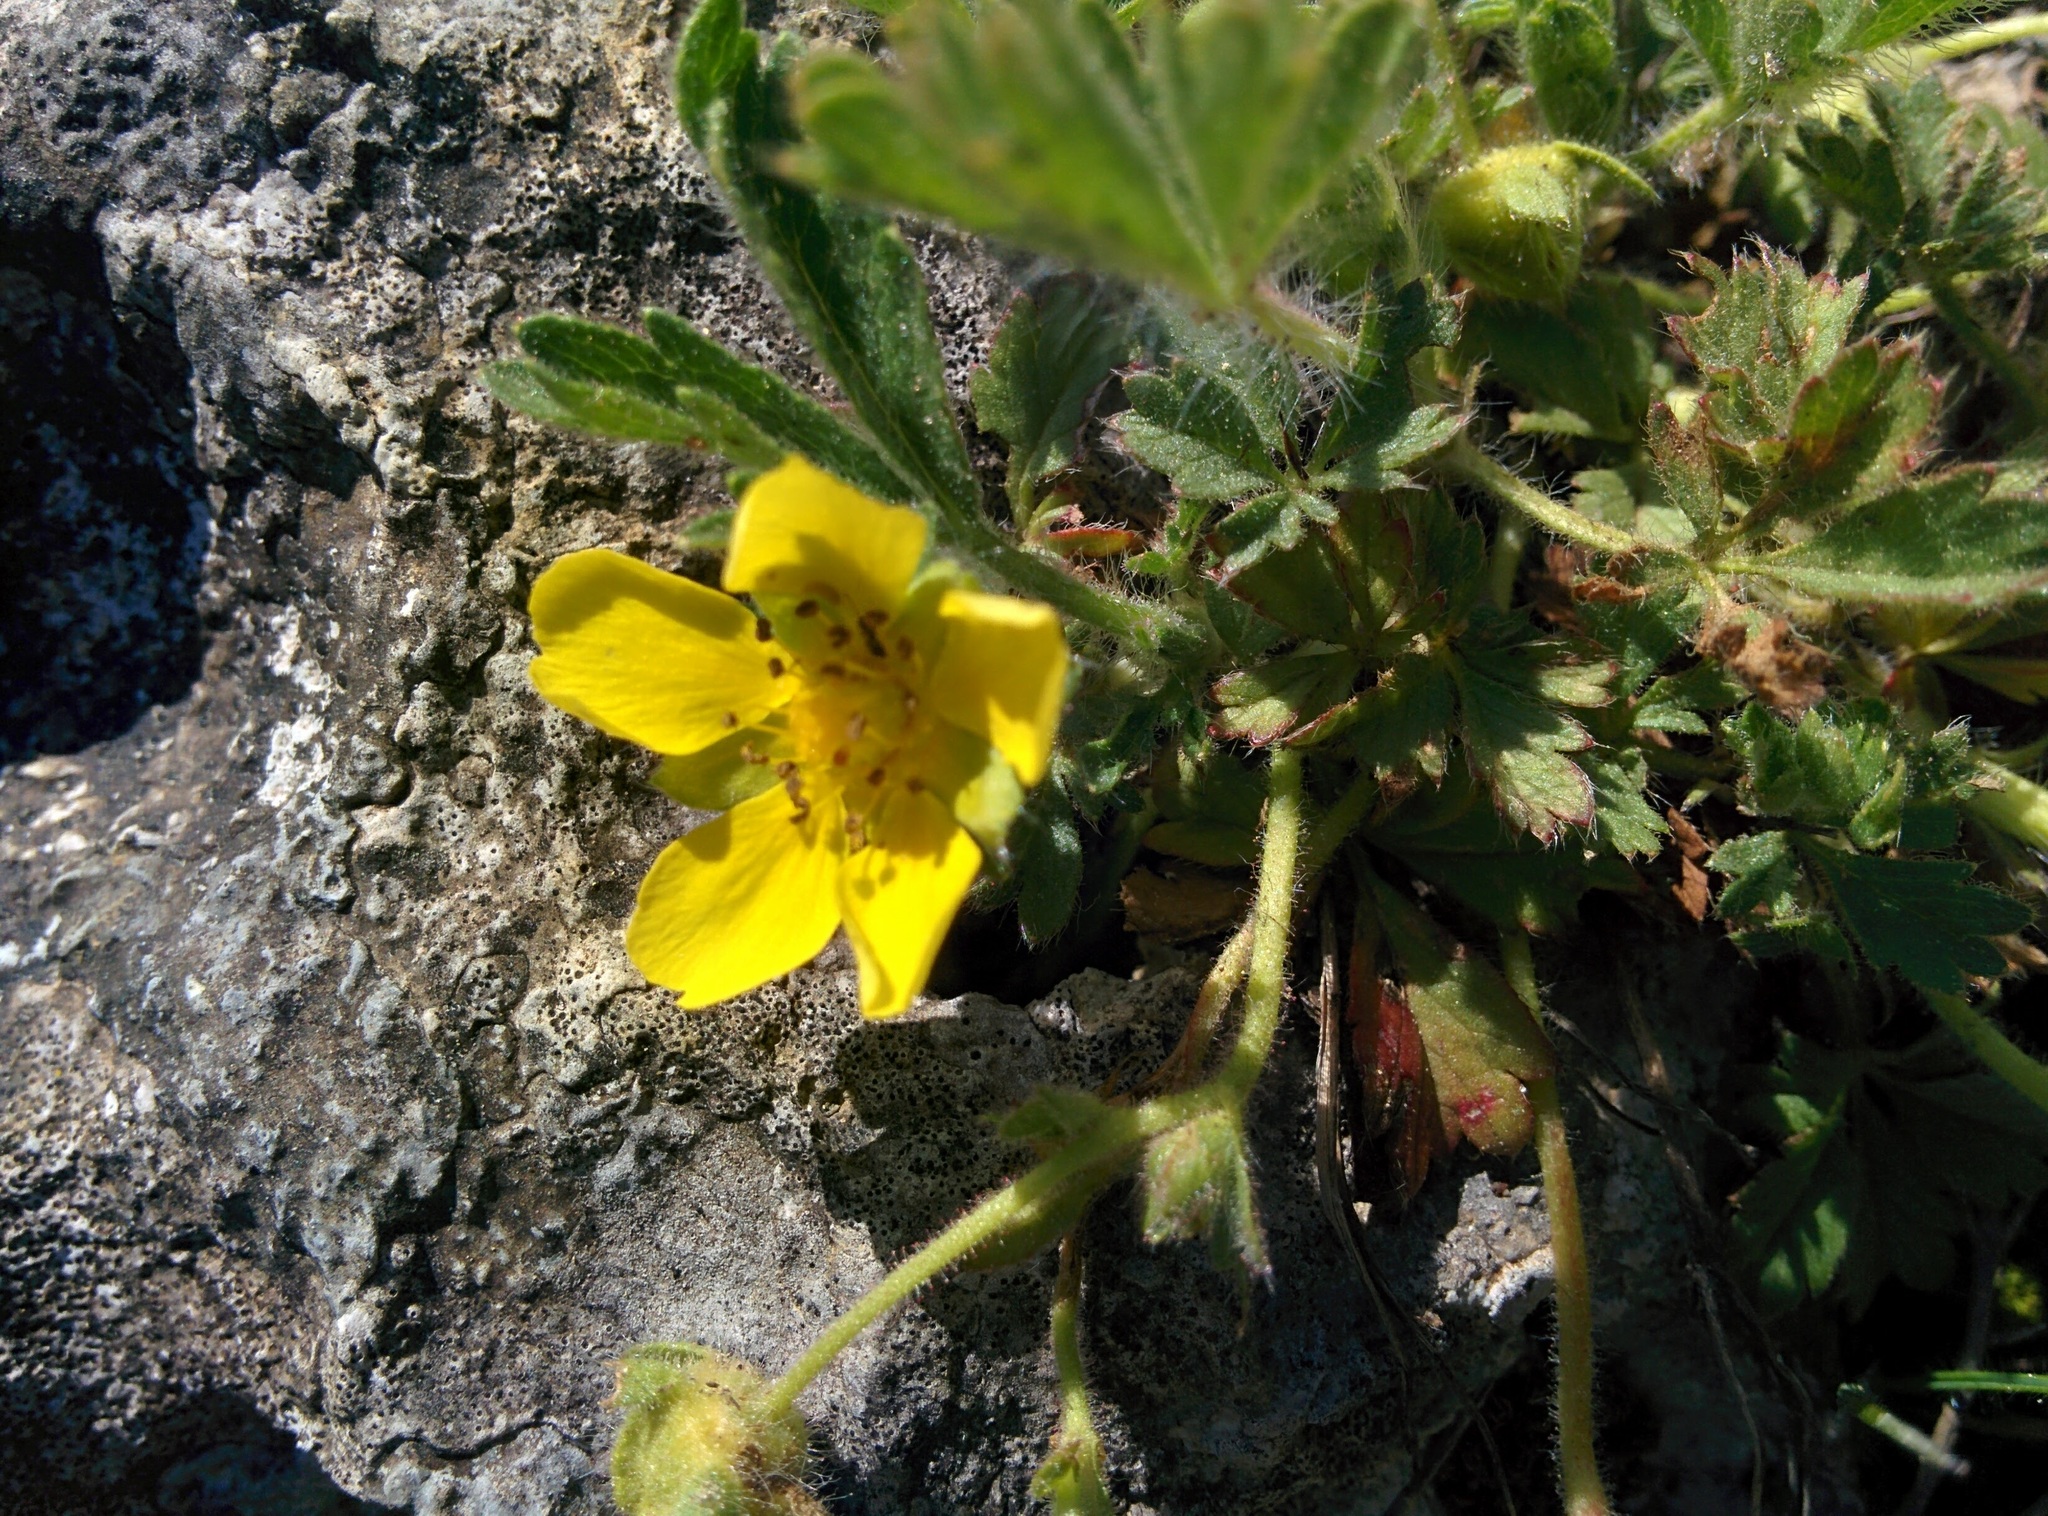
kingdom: Plantae
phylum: Tracheophyta
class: Magnoliopsida
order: Rosales
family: Rosaceae
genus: Potentilla
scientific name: Potentilla verna
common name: Spring cinquefoil
